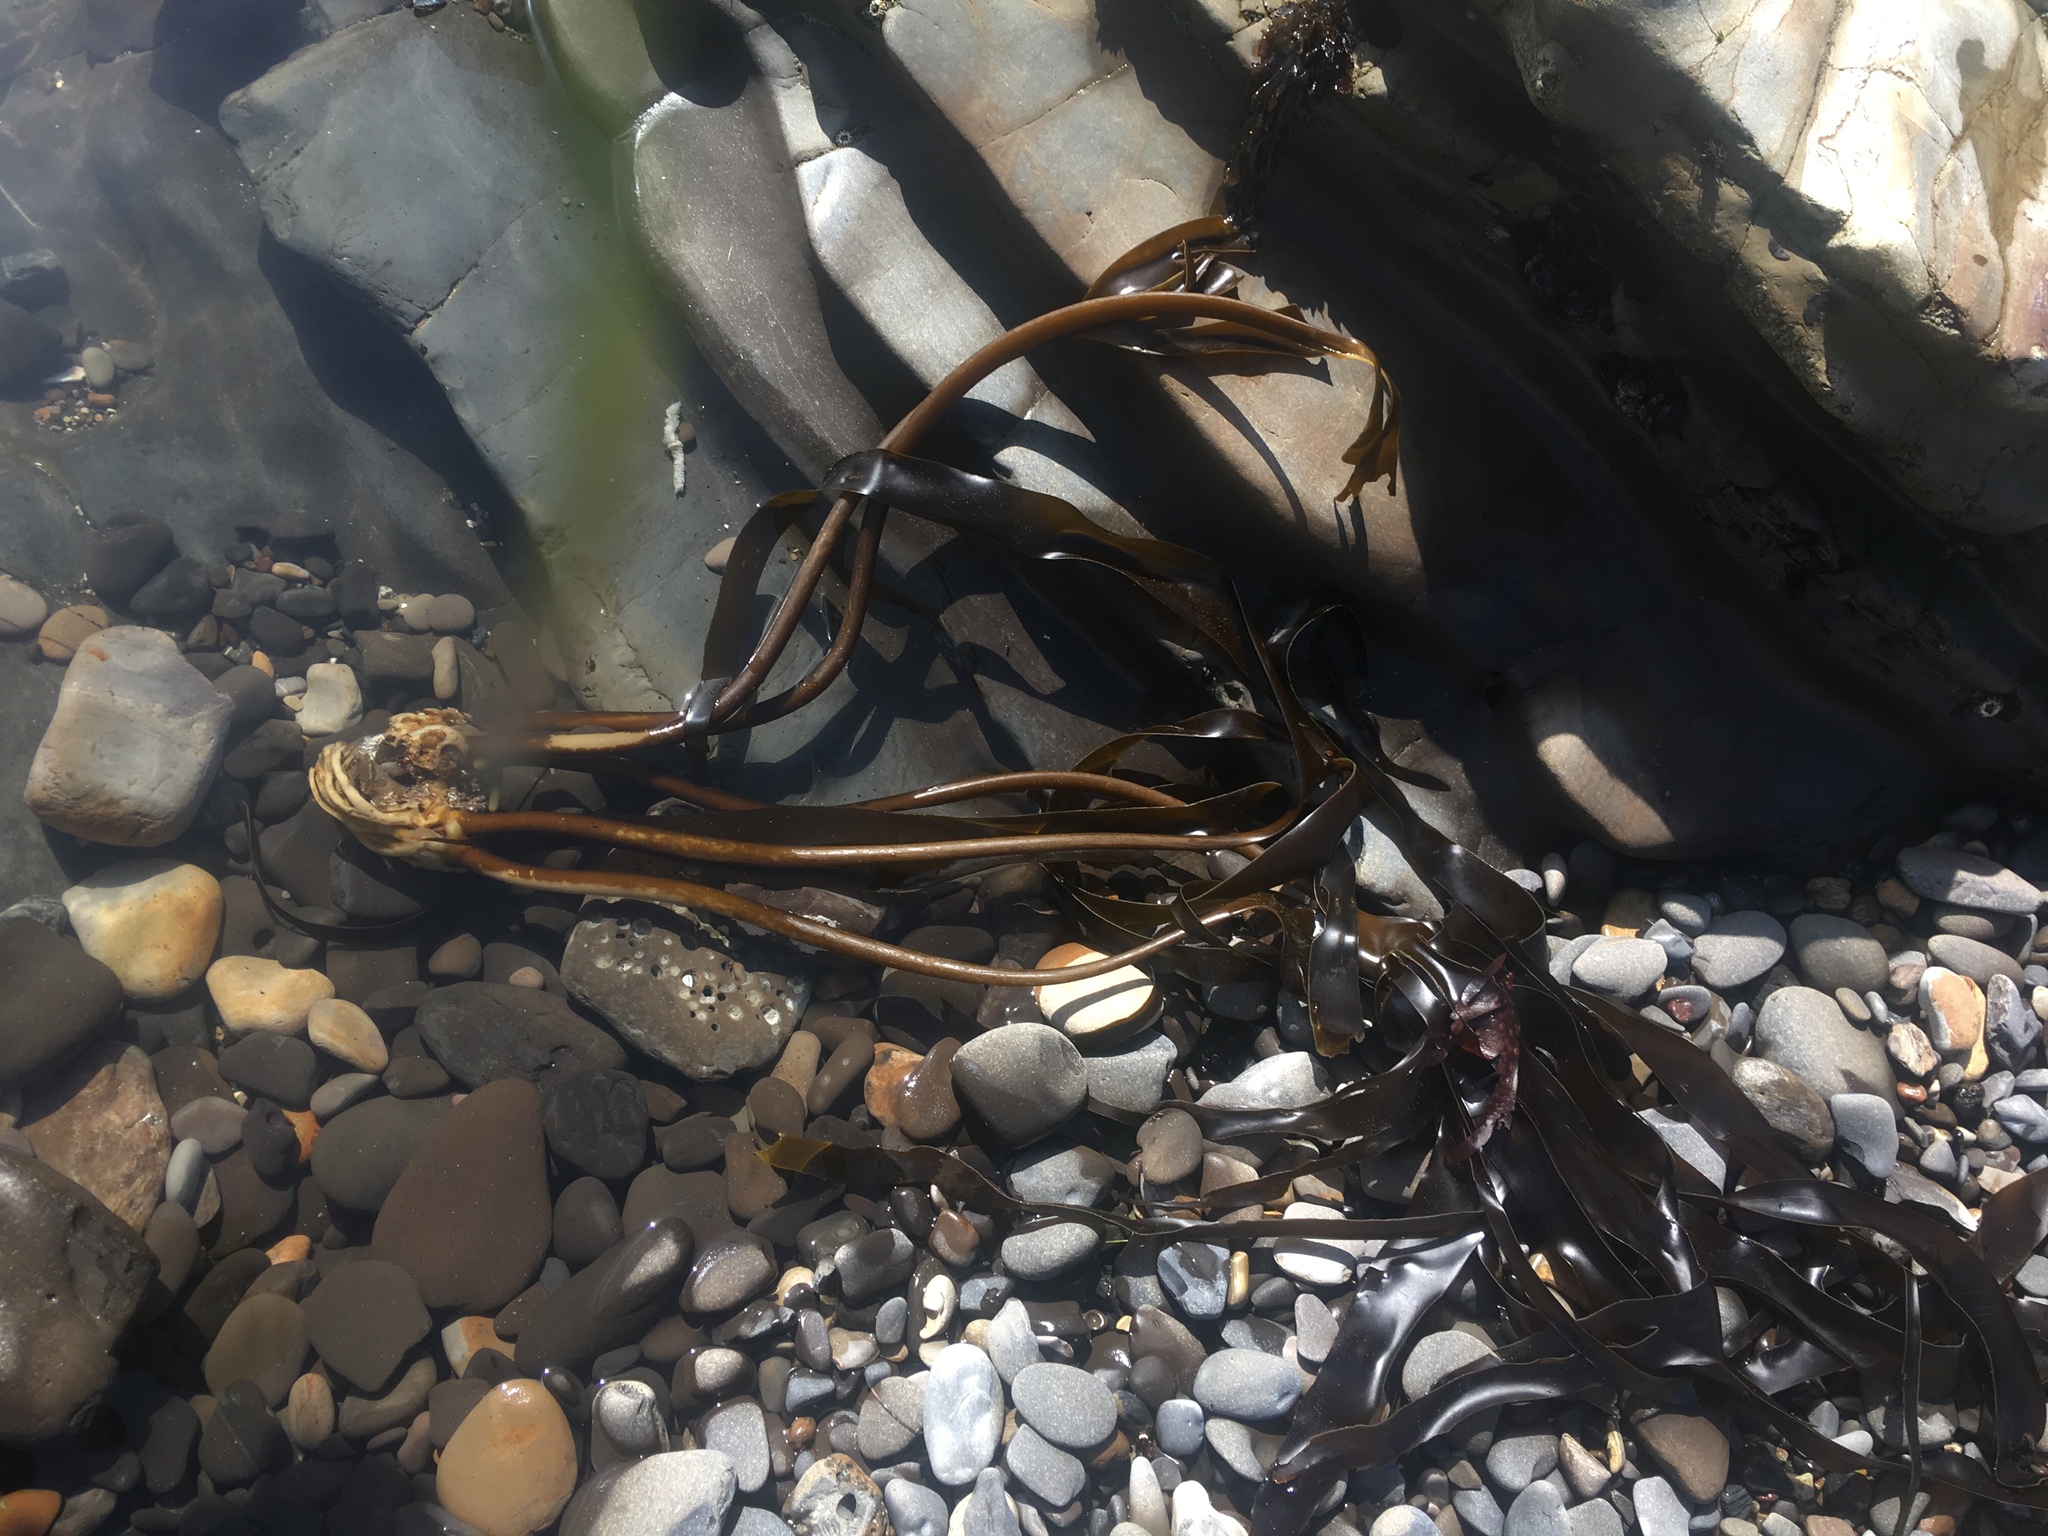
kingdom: Chromista
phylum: Ochrophyta
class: Phaeophyceae
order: Laminariales
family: Laminariaceae
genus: Laminaria
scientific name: Laminaria setchellii
